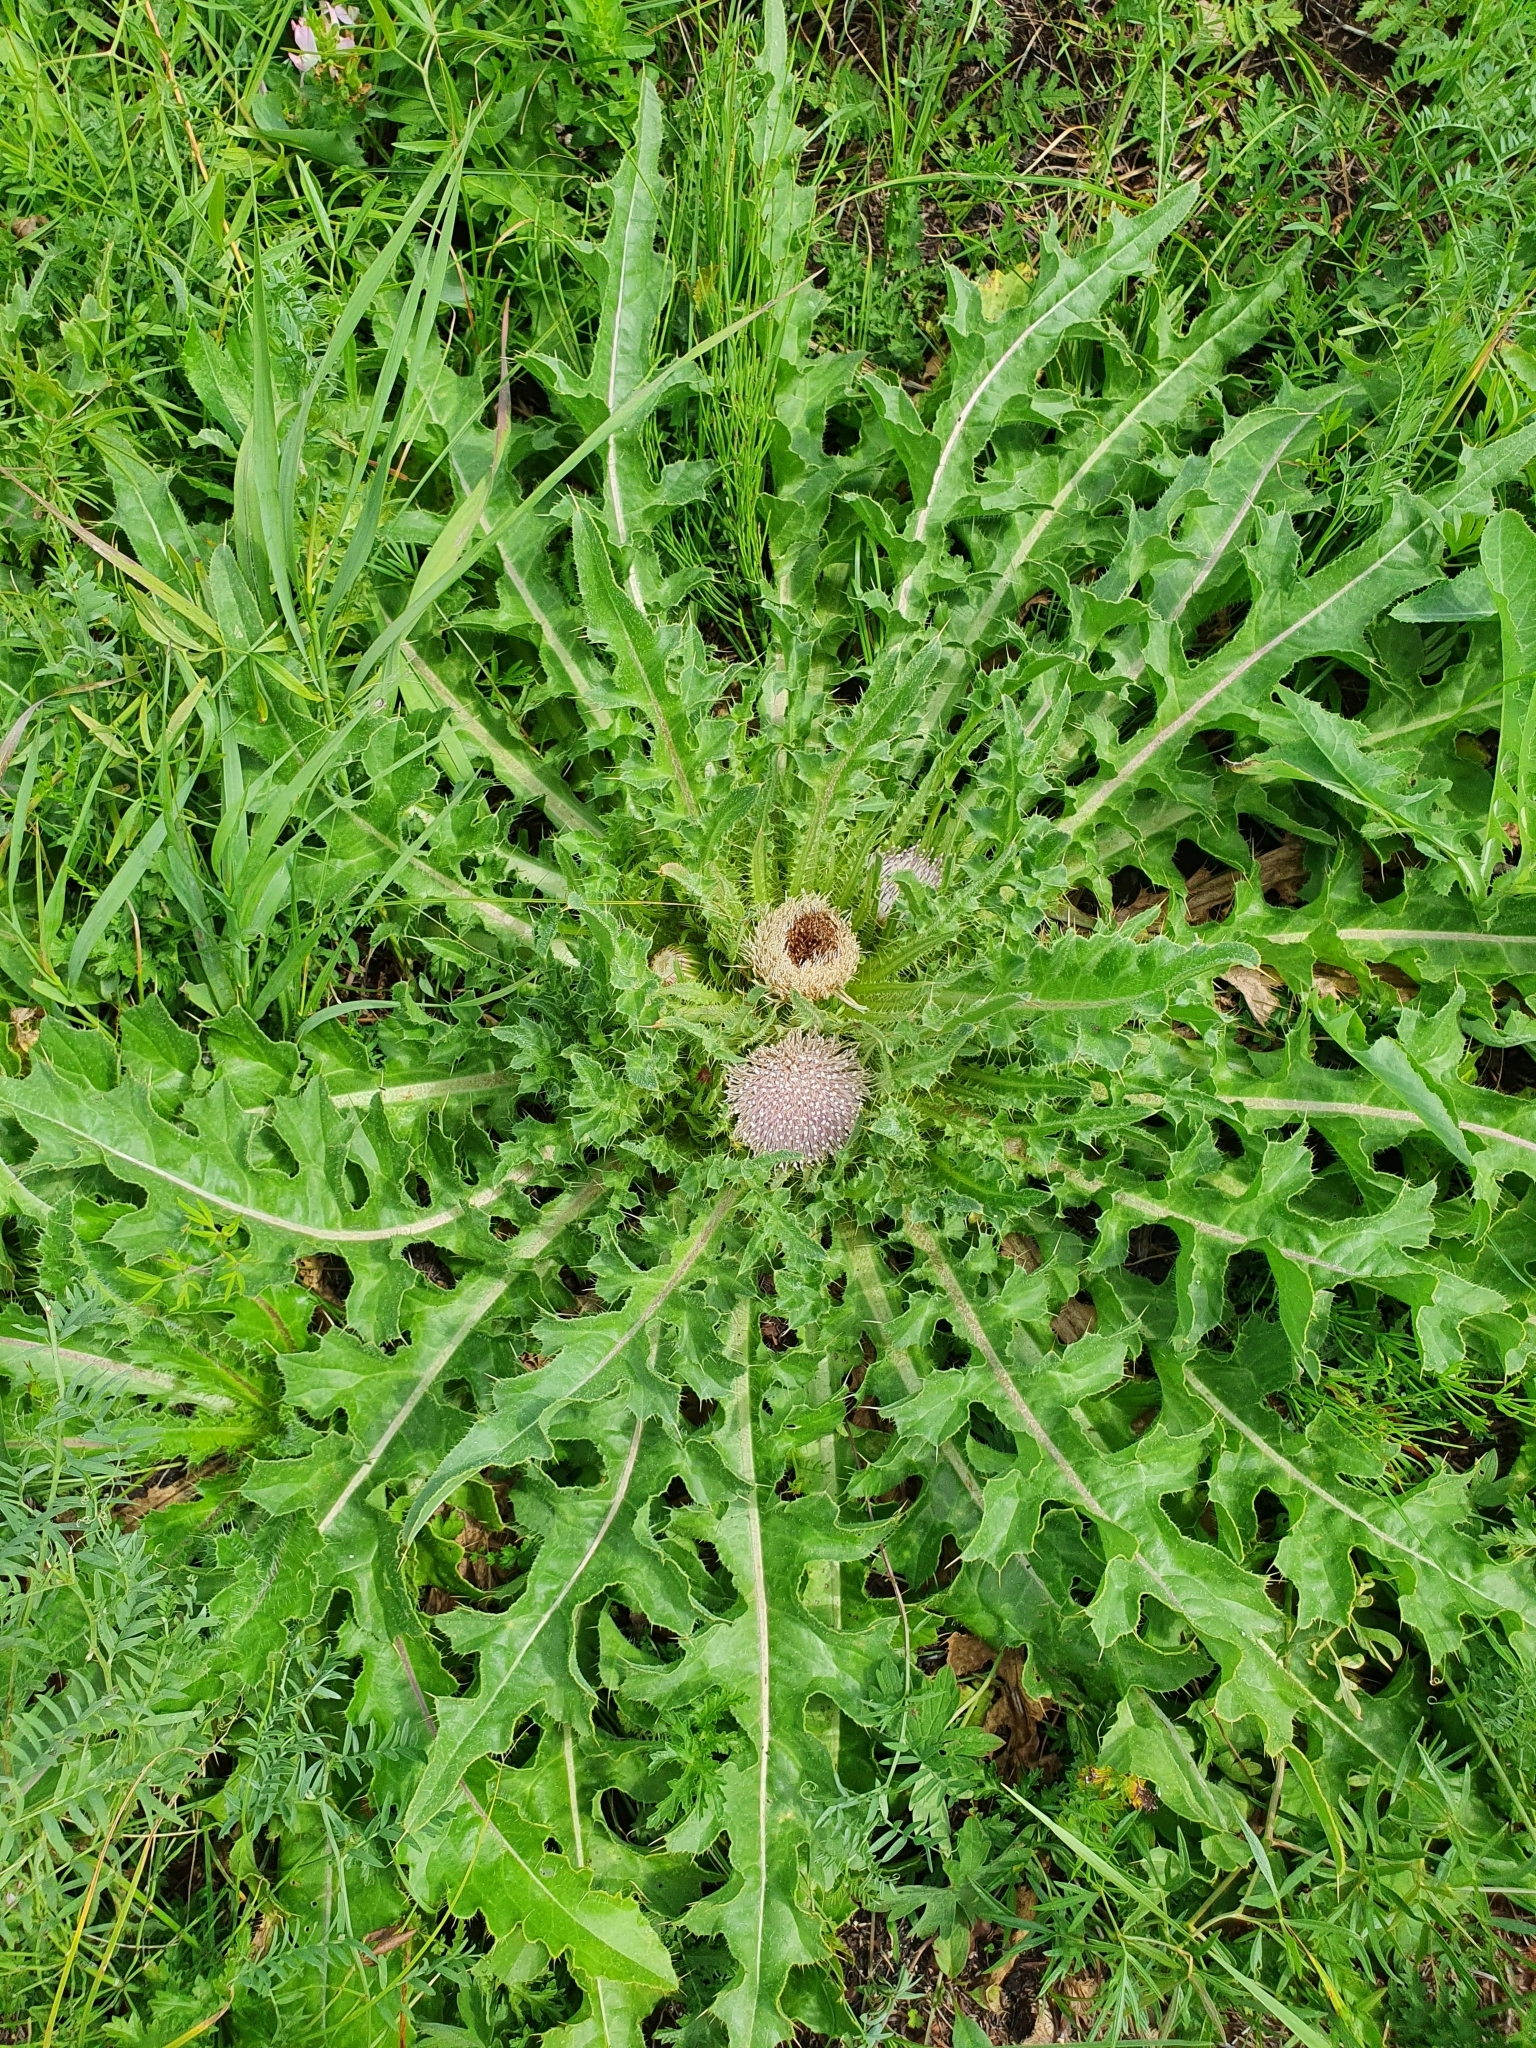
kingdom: Plantae
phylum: Tracheophyta
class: Magnoliopsida
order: Asterales
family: Asteraceae
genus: Cirsium
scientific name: Cirsium esculentum
